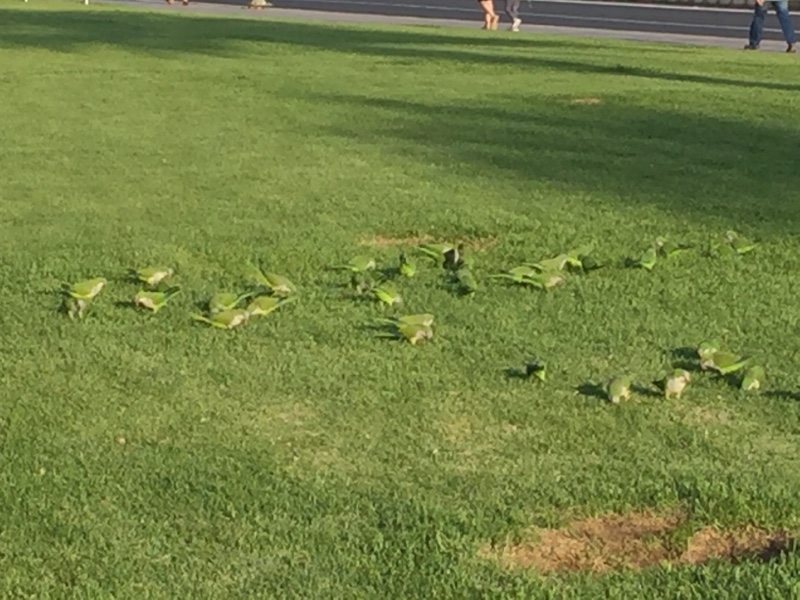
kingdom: Animalia
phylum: Chordata
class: Aves
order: Psittaciformes
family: Psittacidae
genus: Myiopsitta
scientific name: Myiopsitta monachus
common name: Monk parakeet
